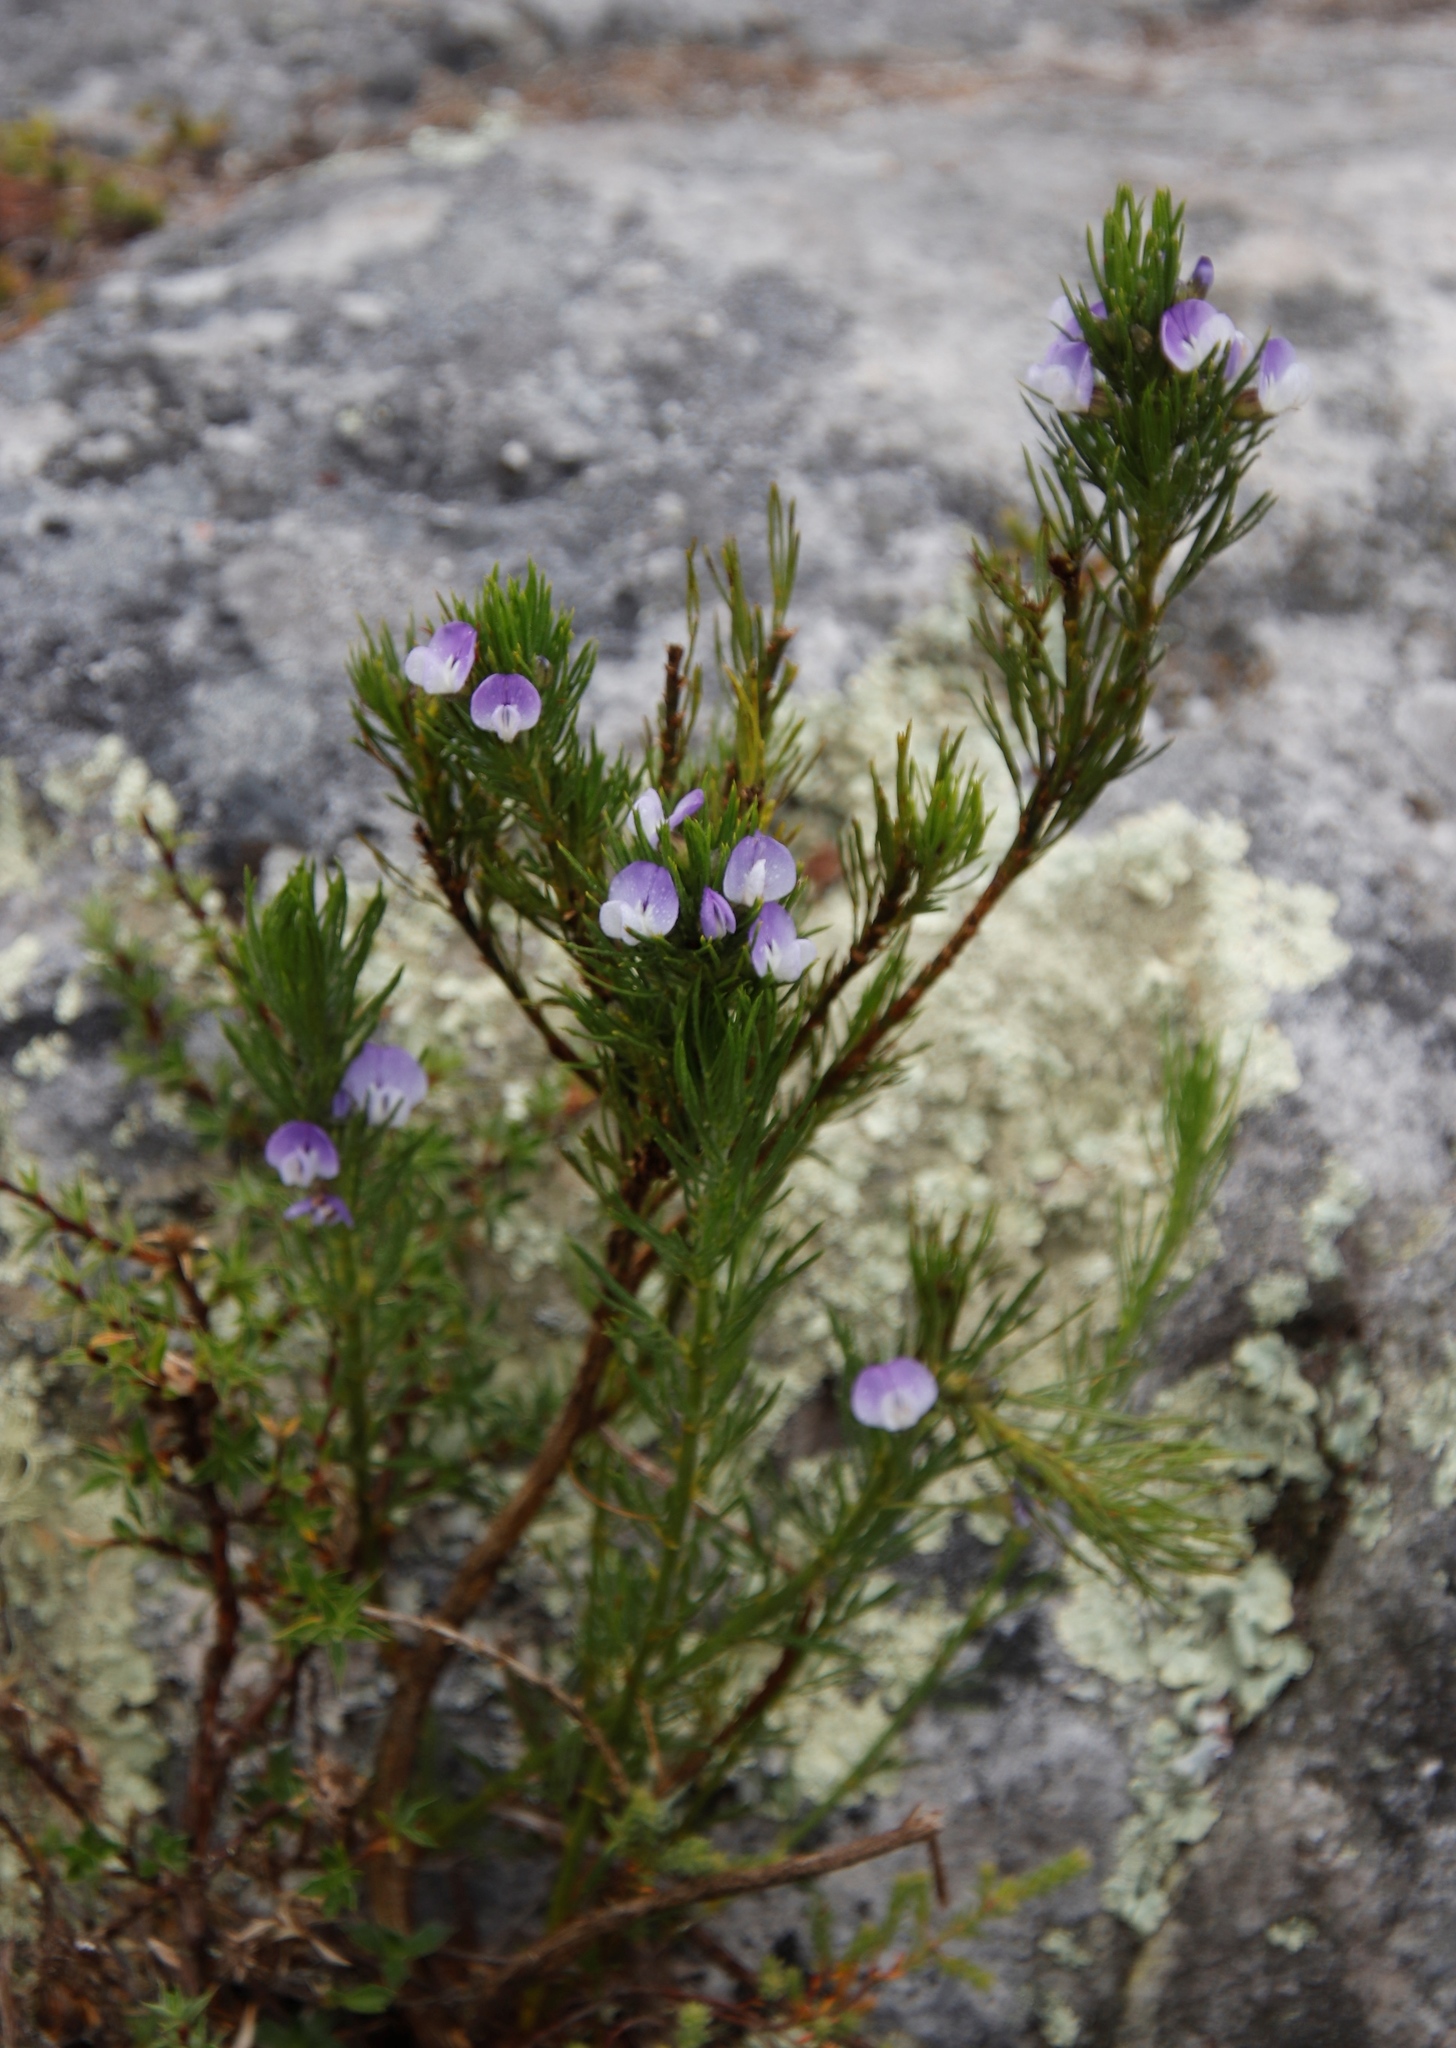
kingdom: Plantae
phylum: Tracheophyta
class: Magnoliopsida
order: Fabales
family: Fabaceae
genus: Psoralea
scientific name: Psoralea pinnata
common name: African scurfpea
